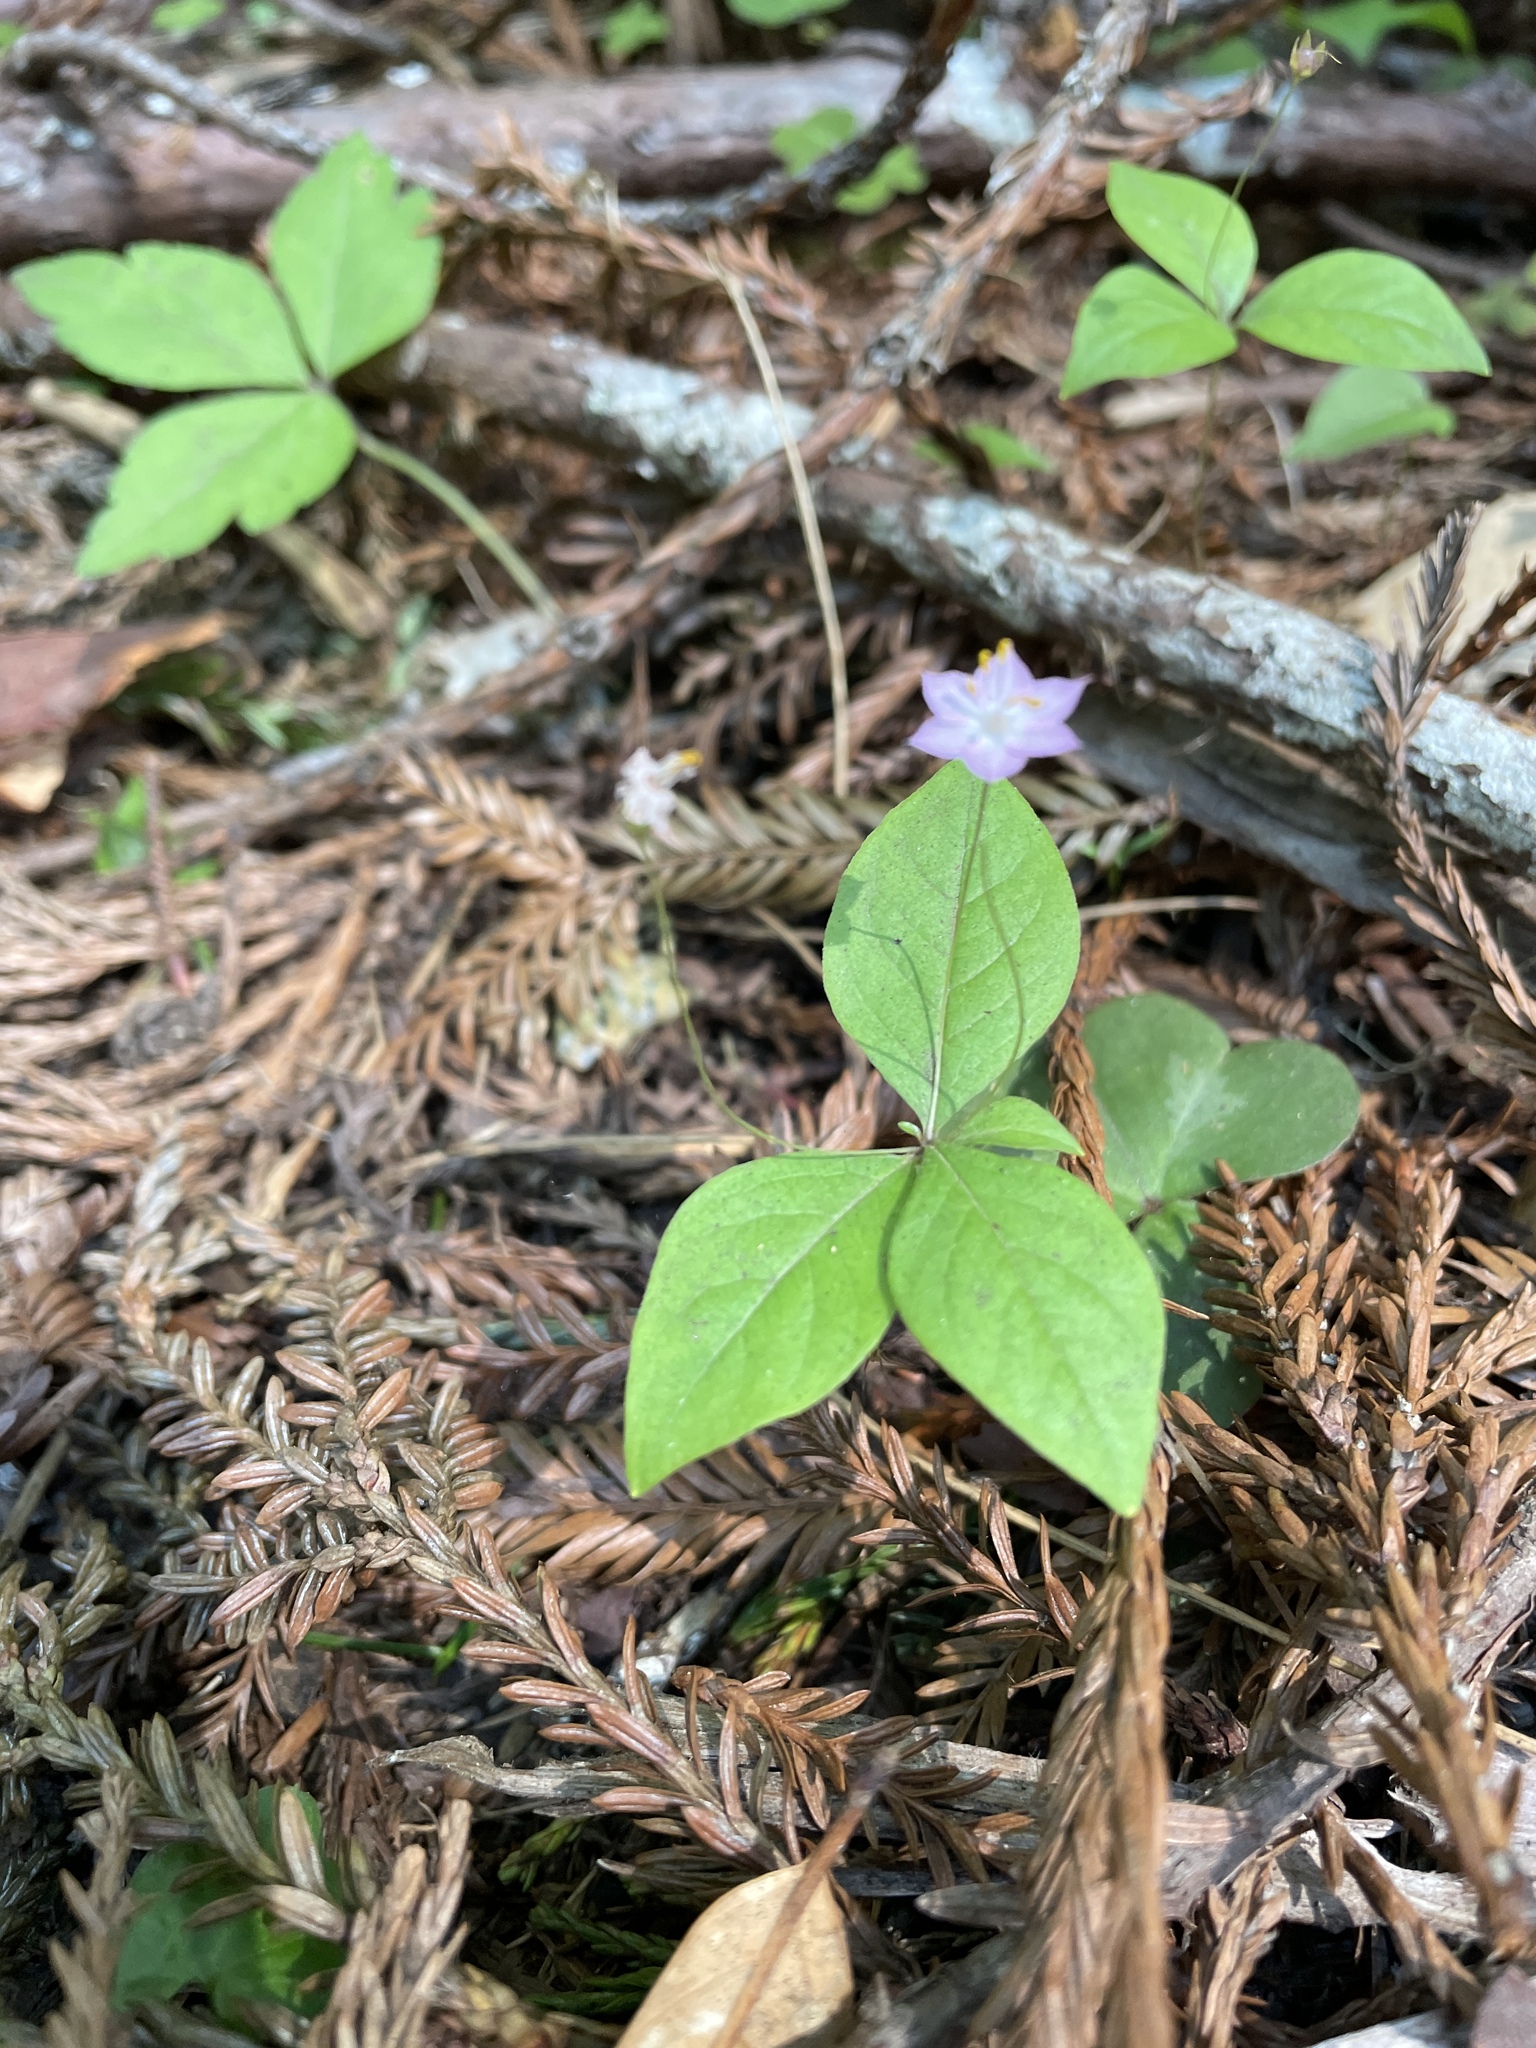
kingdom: Plantae
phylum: Tracheophyta
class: Magnoliopsida
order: Ericales
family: Primulaceae
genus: Lysimachia
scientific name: Lysimachia latifolia
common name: Pacific starflower
